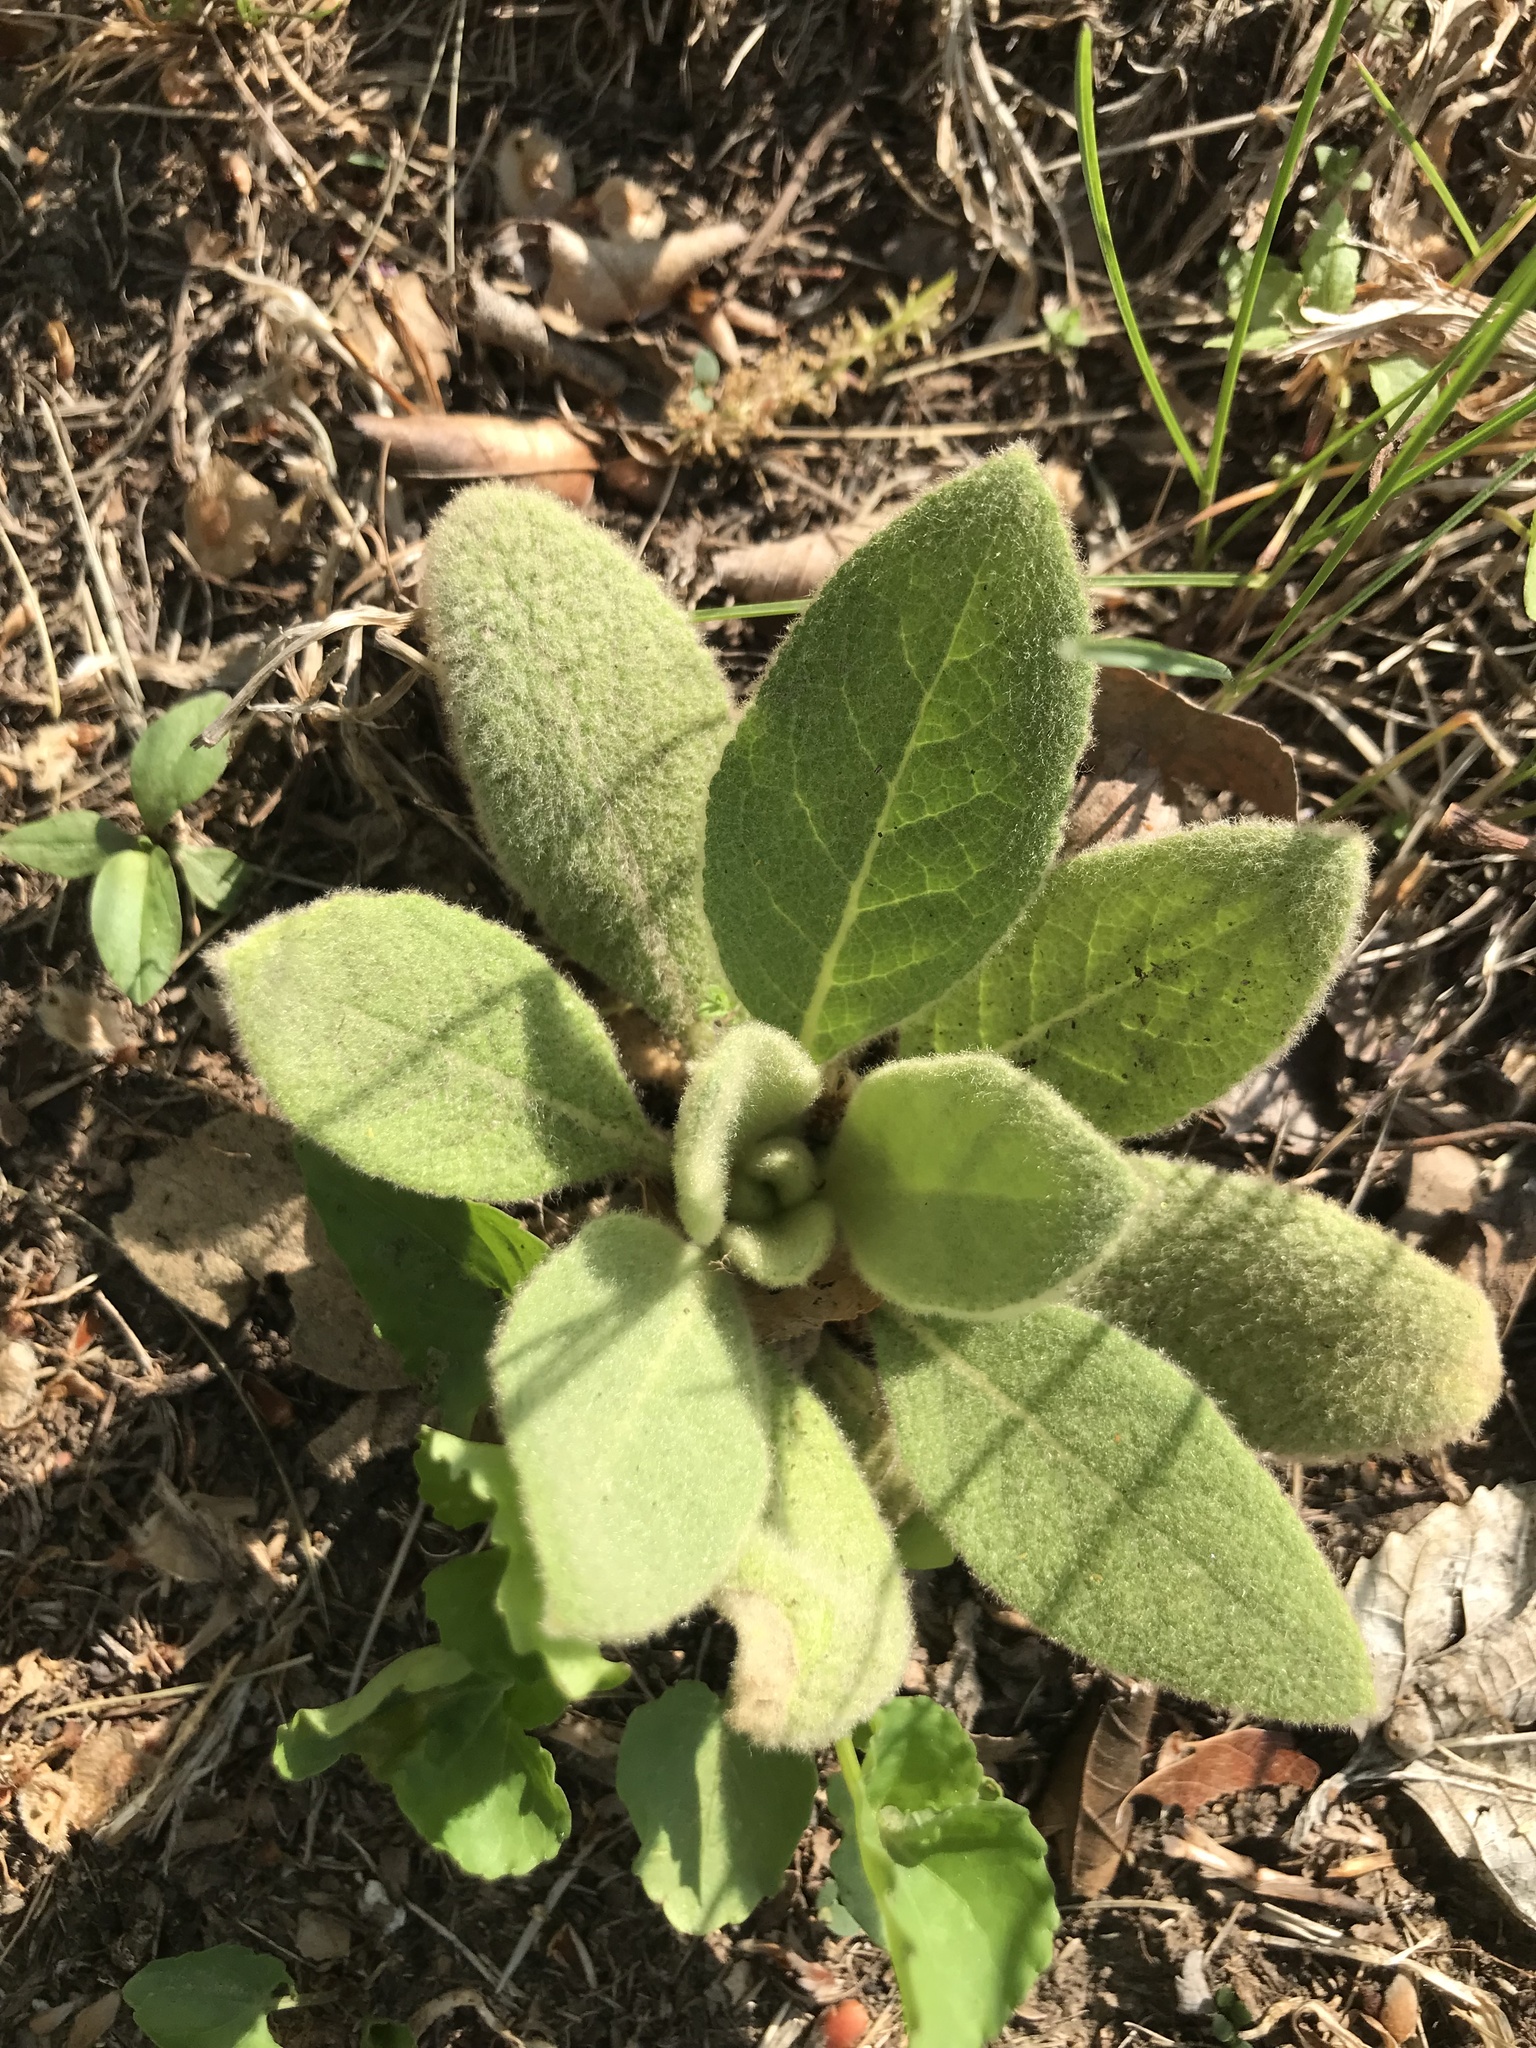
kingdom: Plantae
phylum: Tracheophyta
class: Magnoliopsida
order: Lamiales
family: Scrophulariaceae
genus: Verbascum
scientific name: Verbascum thapsus
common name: Common mullein
